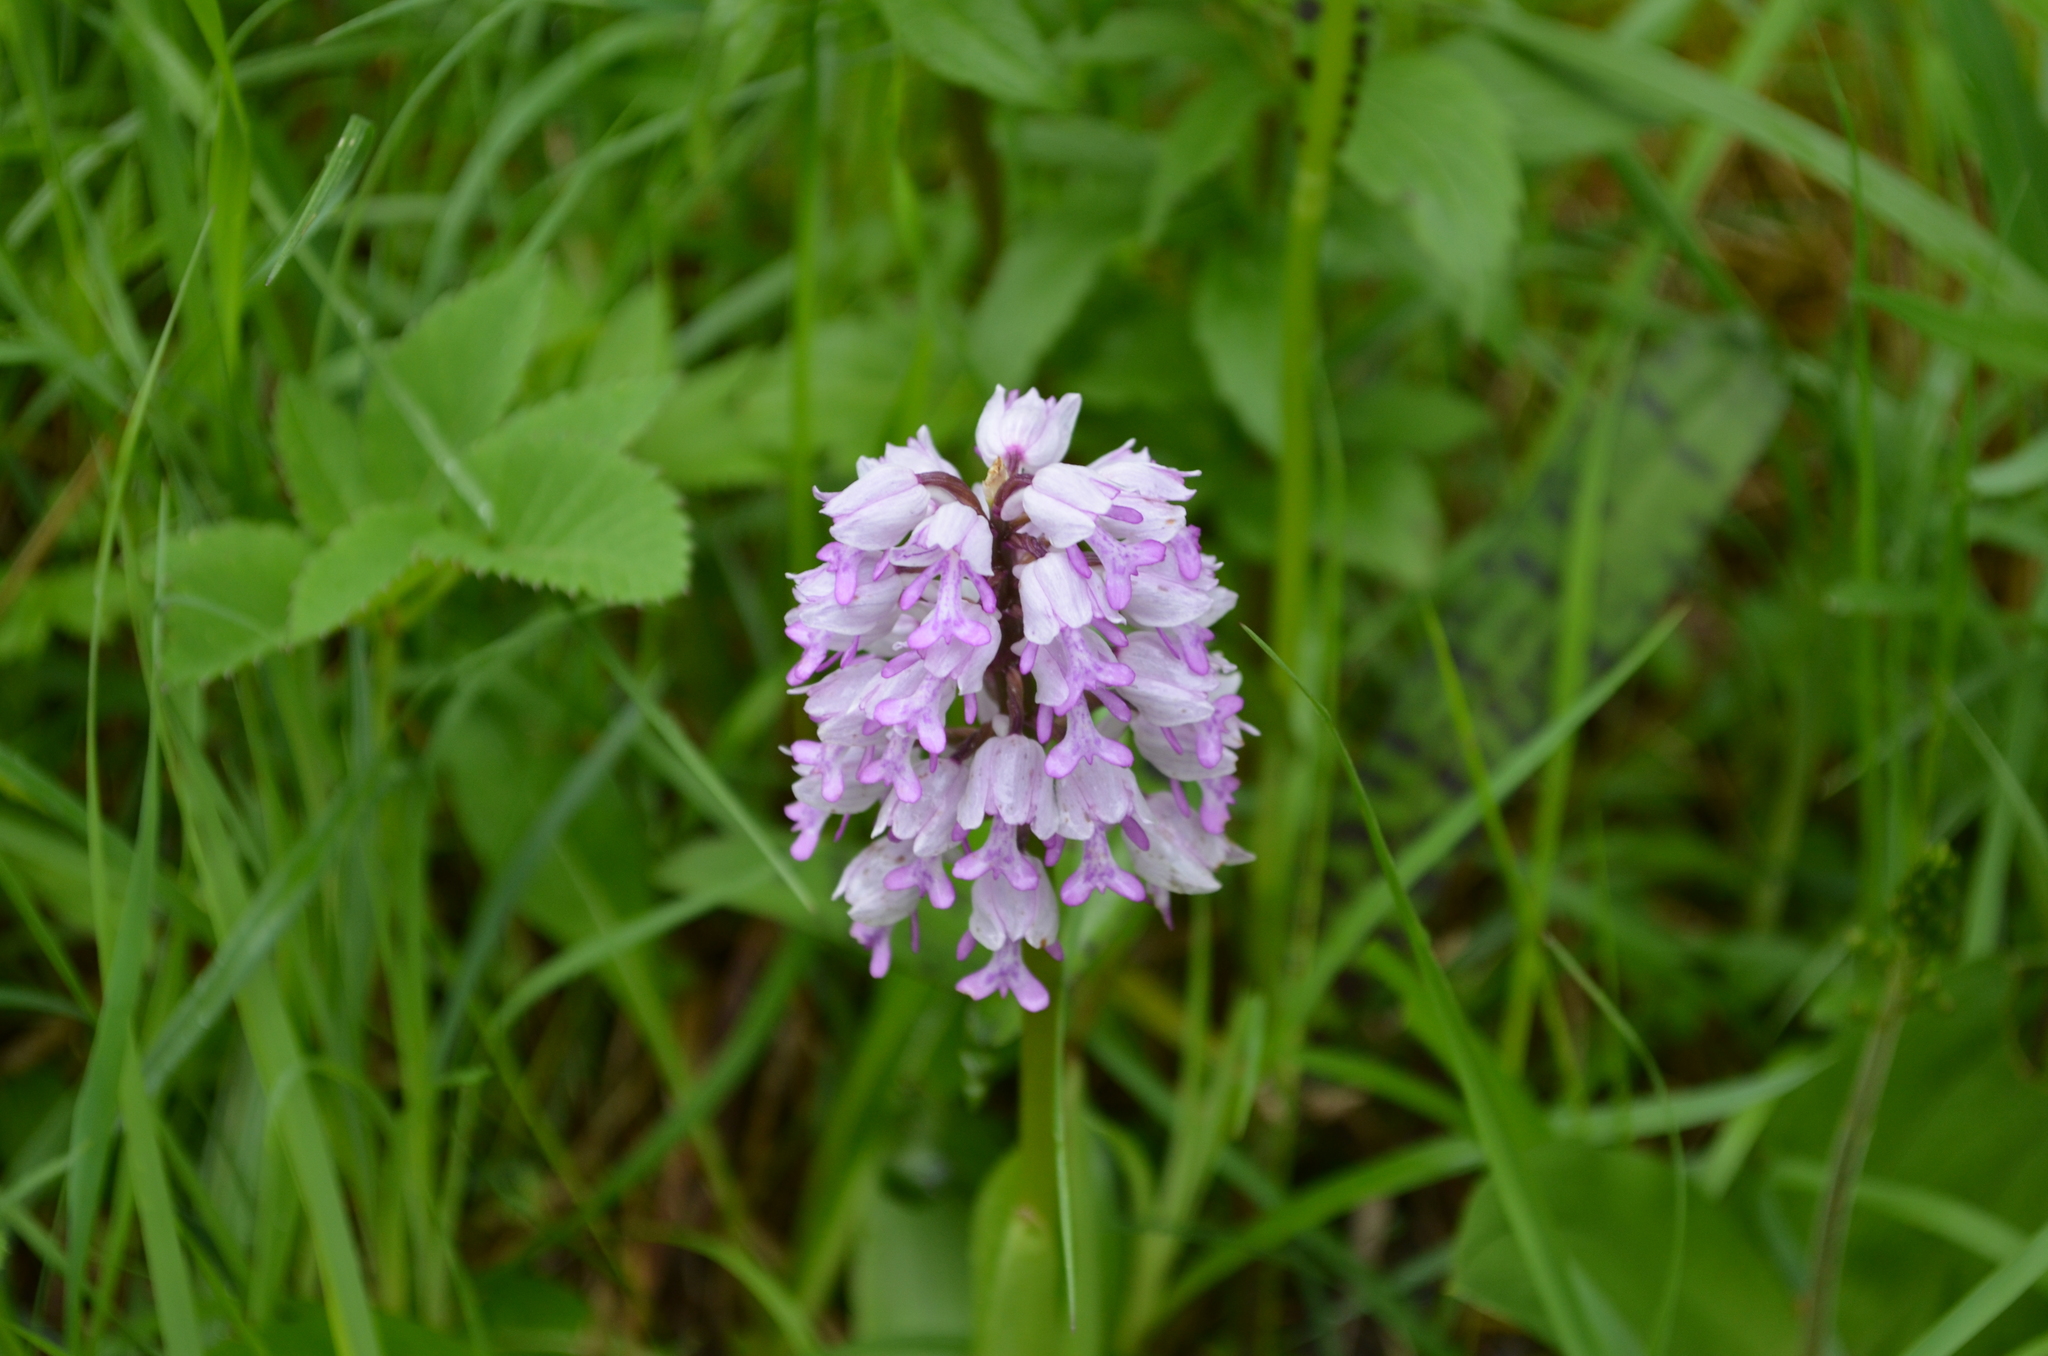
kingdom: Plantae
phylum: Tracheophyta
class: Liliopsida
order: Asparagales
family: Orchidaceae
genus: Orchis
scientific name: Orchis militaris
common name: Military orchid
